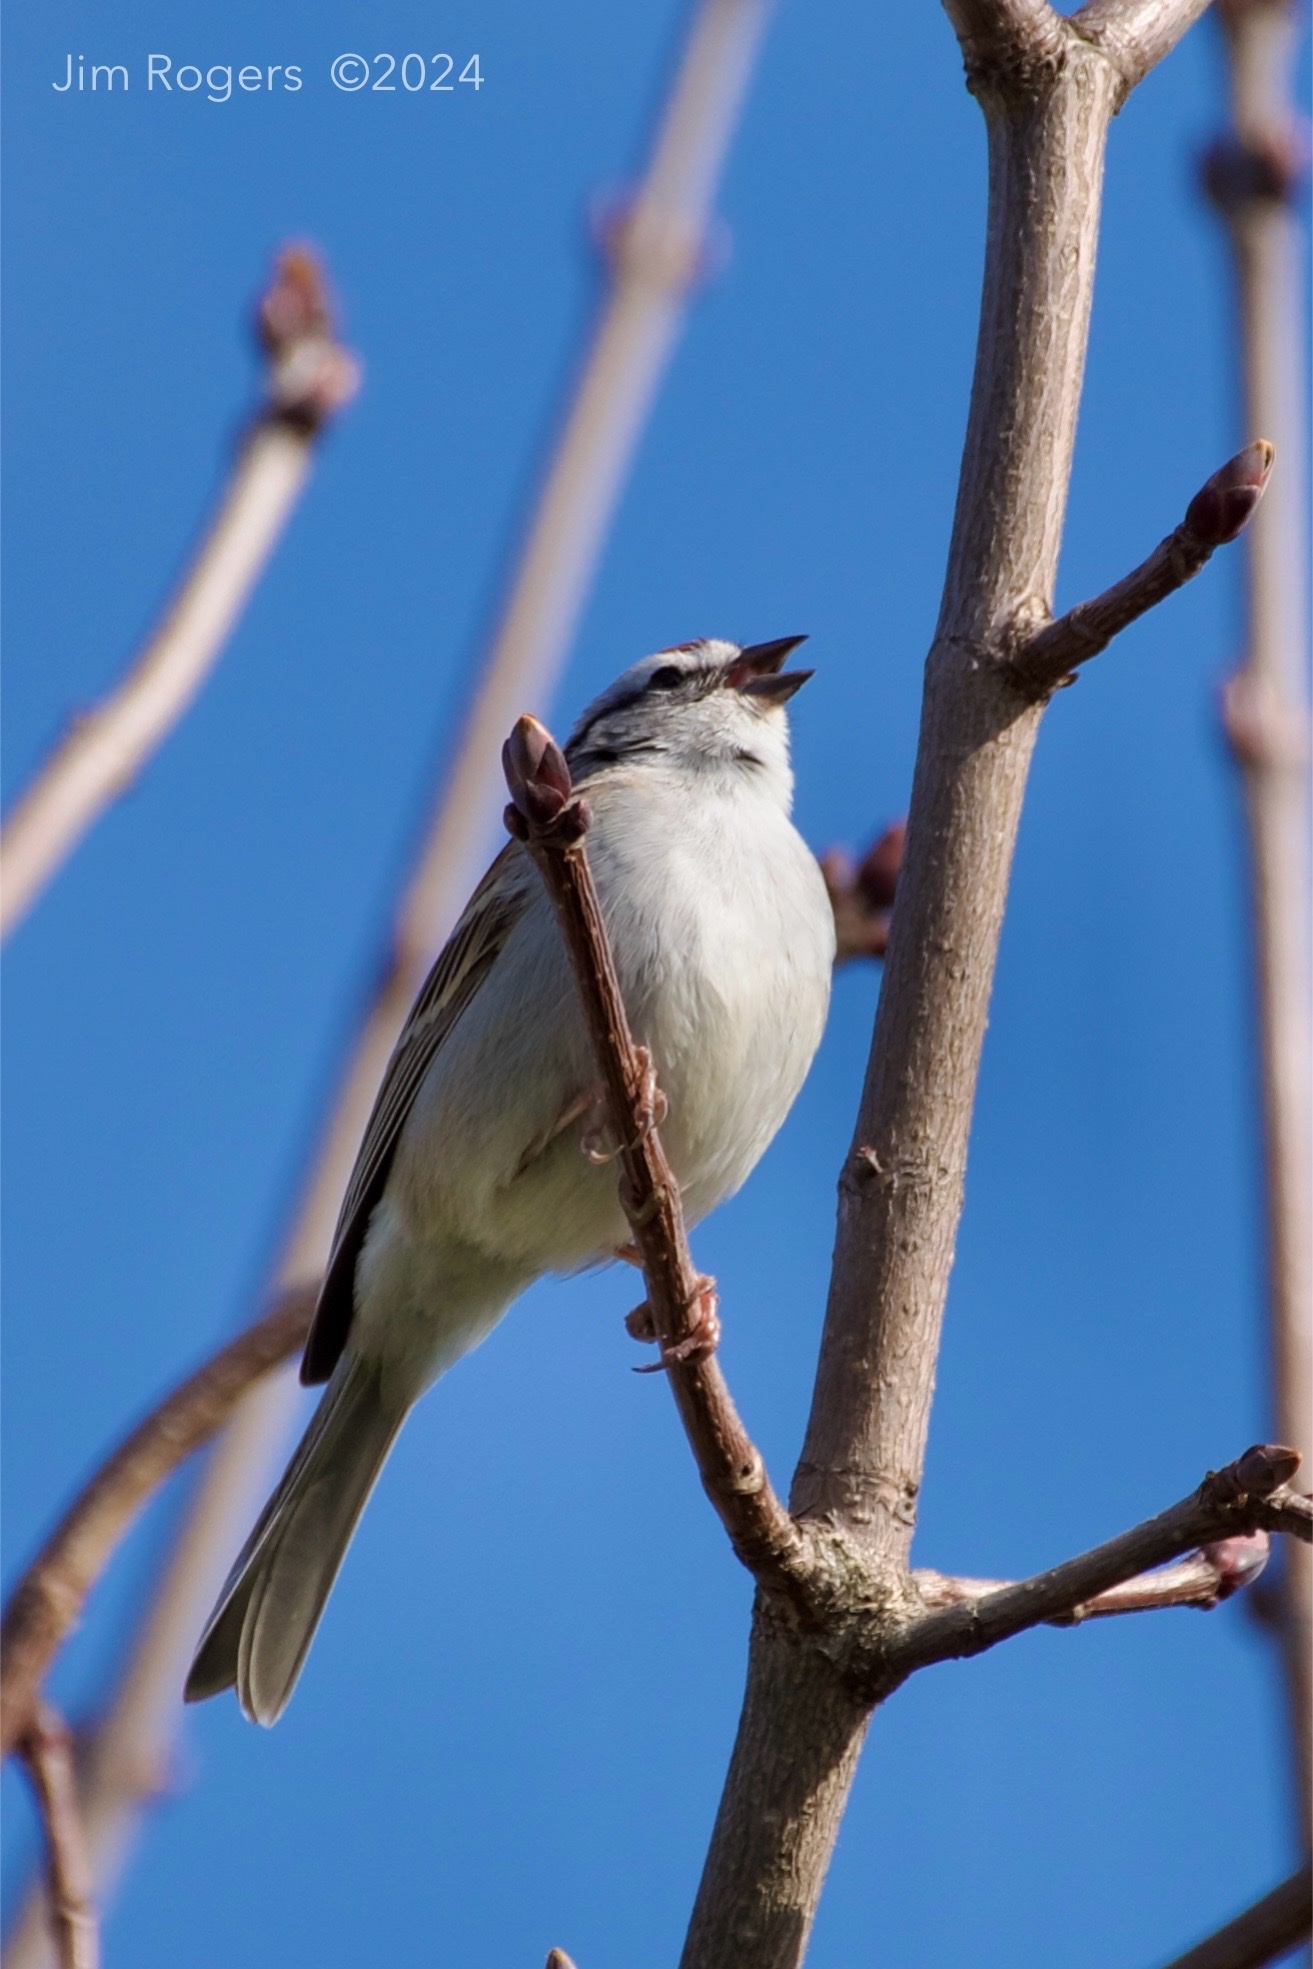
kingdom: Animalia
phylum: Chordata
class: Aves
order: Passeriformes
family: Passerellidae
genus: Spizella
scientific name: Spizella passerina
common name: Chipping sparrow
